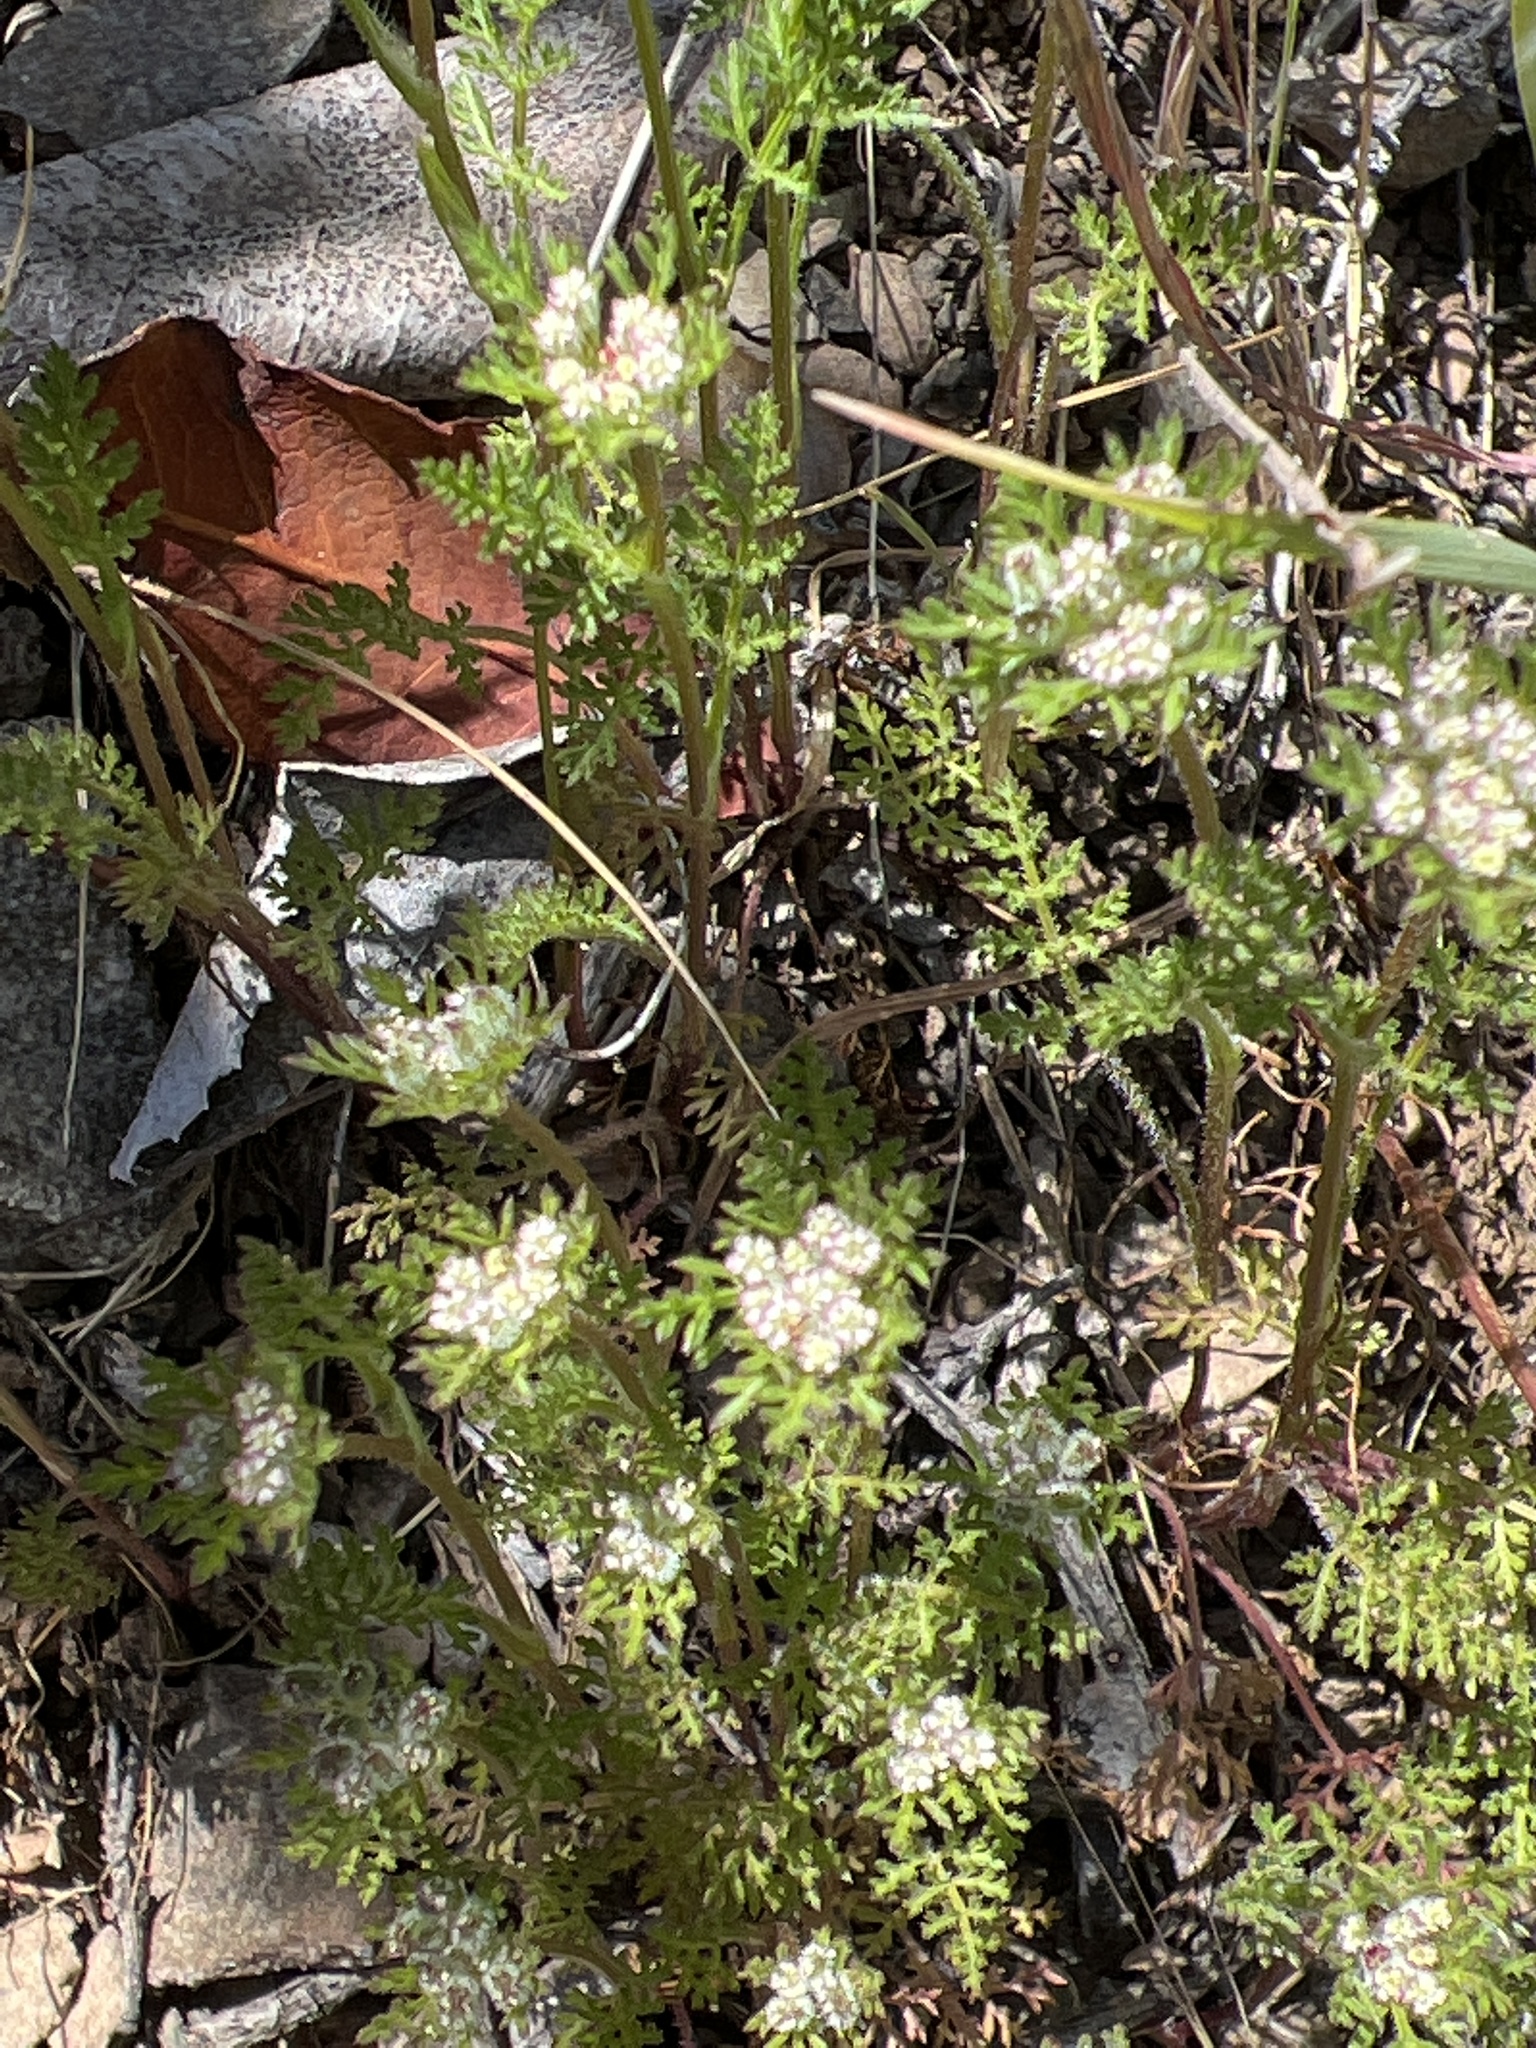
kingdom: Plantae
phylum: Tracheophyta
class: Magnoliopsida
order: Apiales
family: Apiaceae
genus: Daucus
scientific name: Daucus pusillus
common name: Southwest wild carrot
